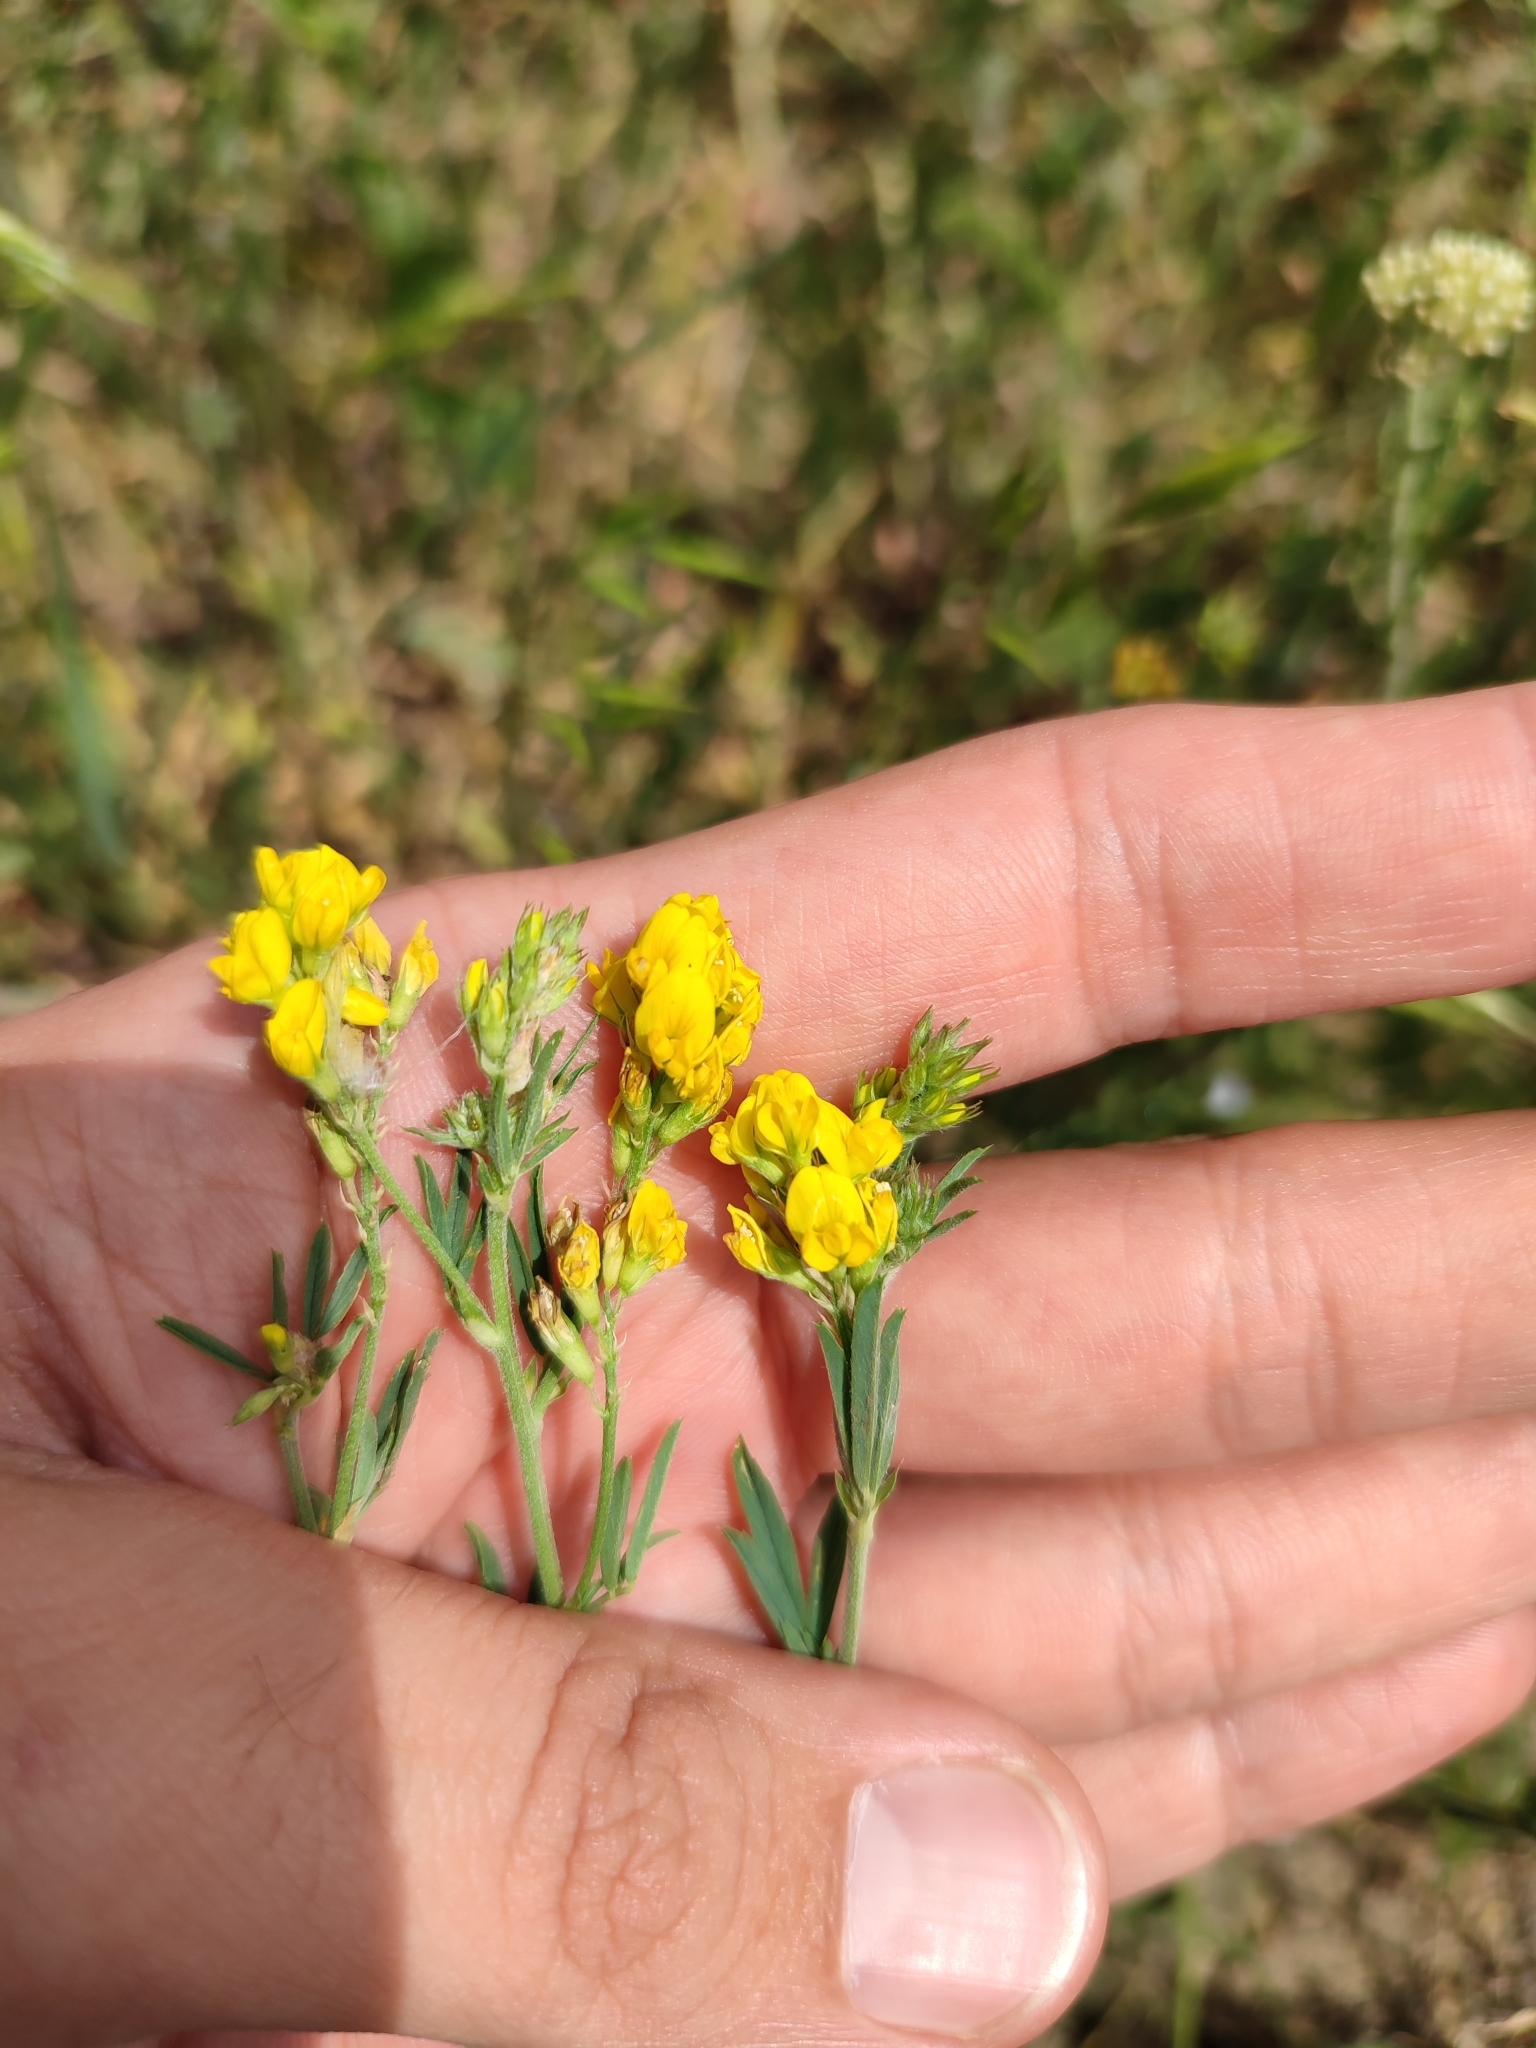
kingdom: Plantae
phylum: Tracheophyta
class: Magnoliopsida
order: Fabales
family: Fabaceae
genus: Medicago
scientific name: Medicago falcata
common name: Sickle medick
